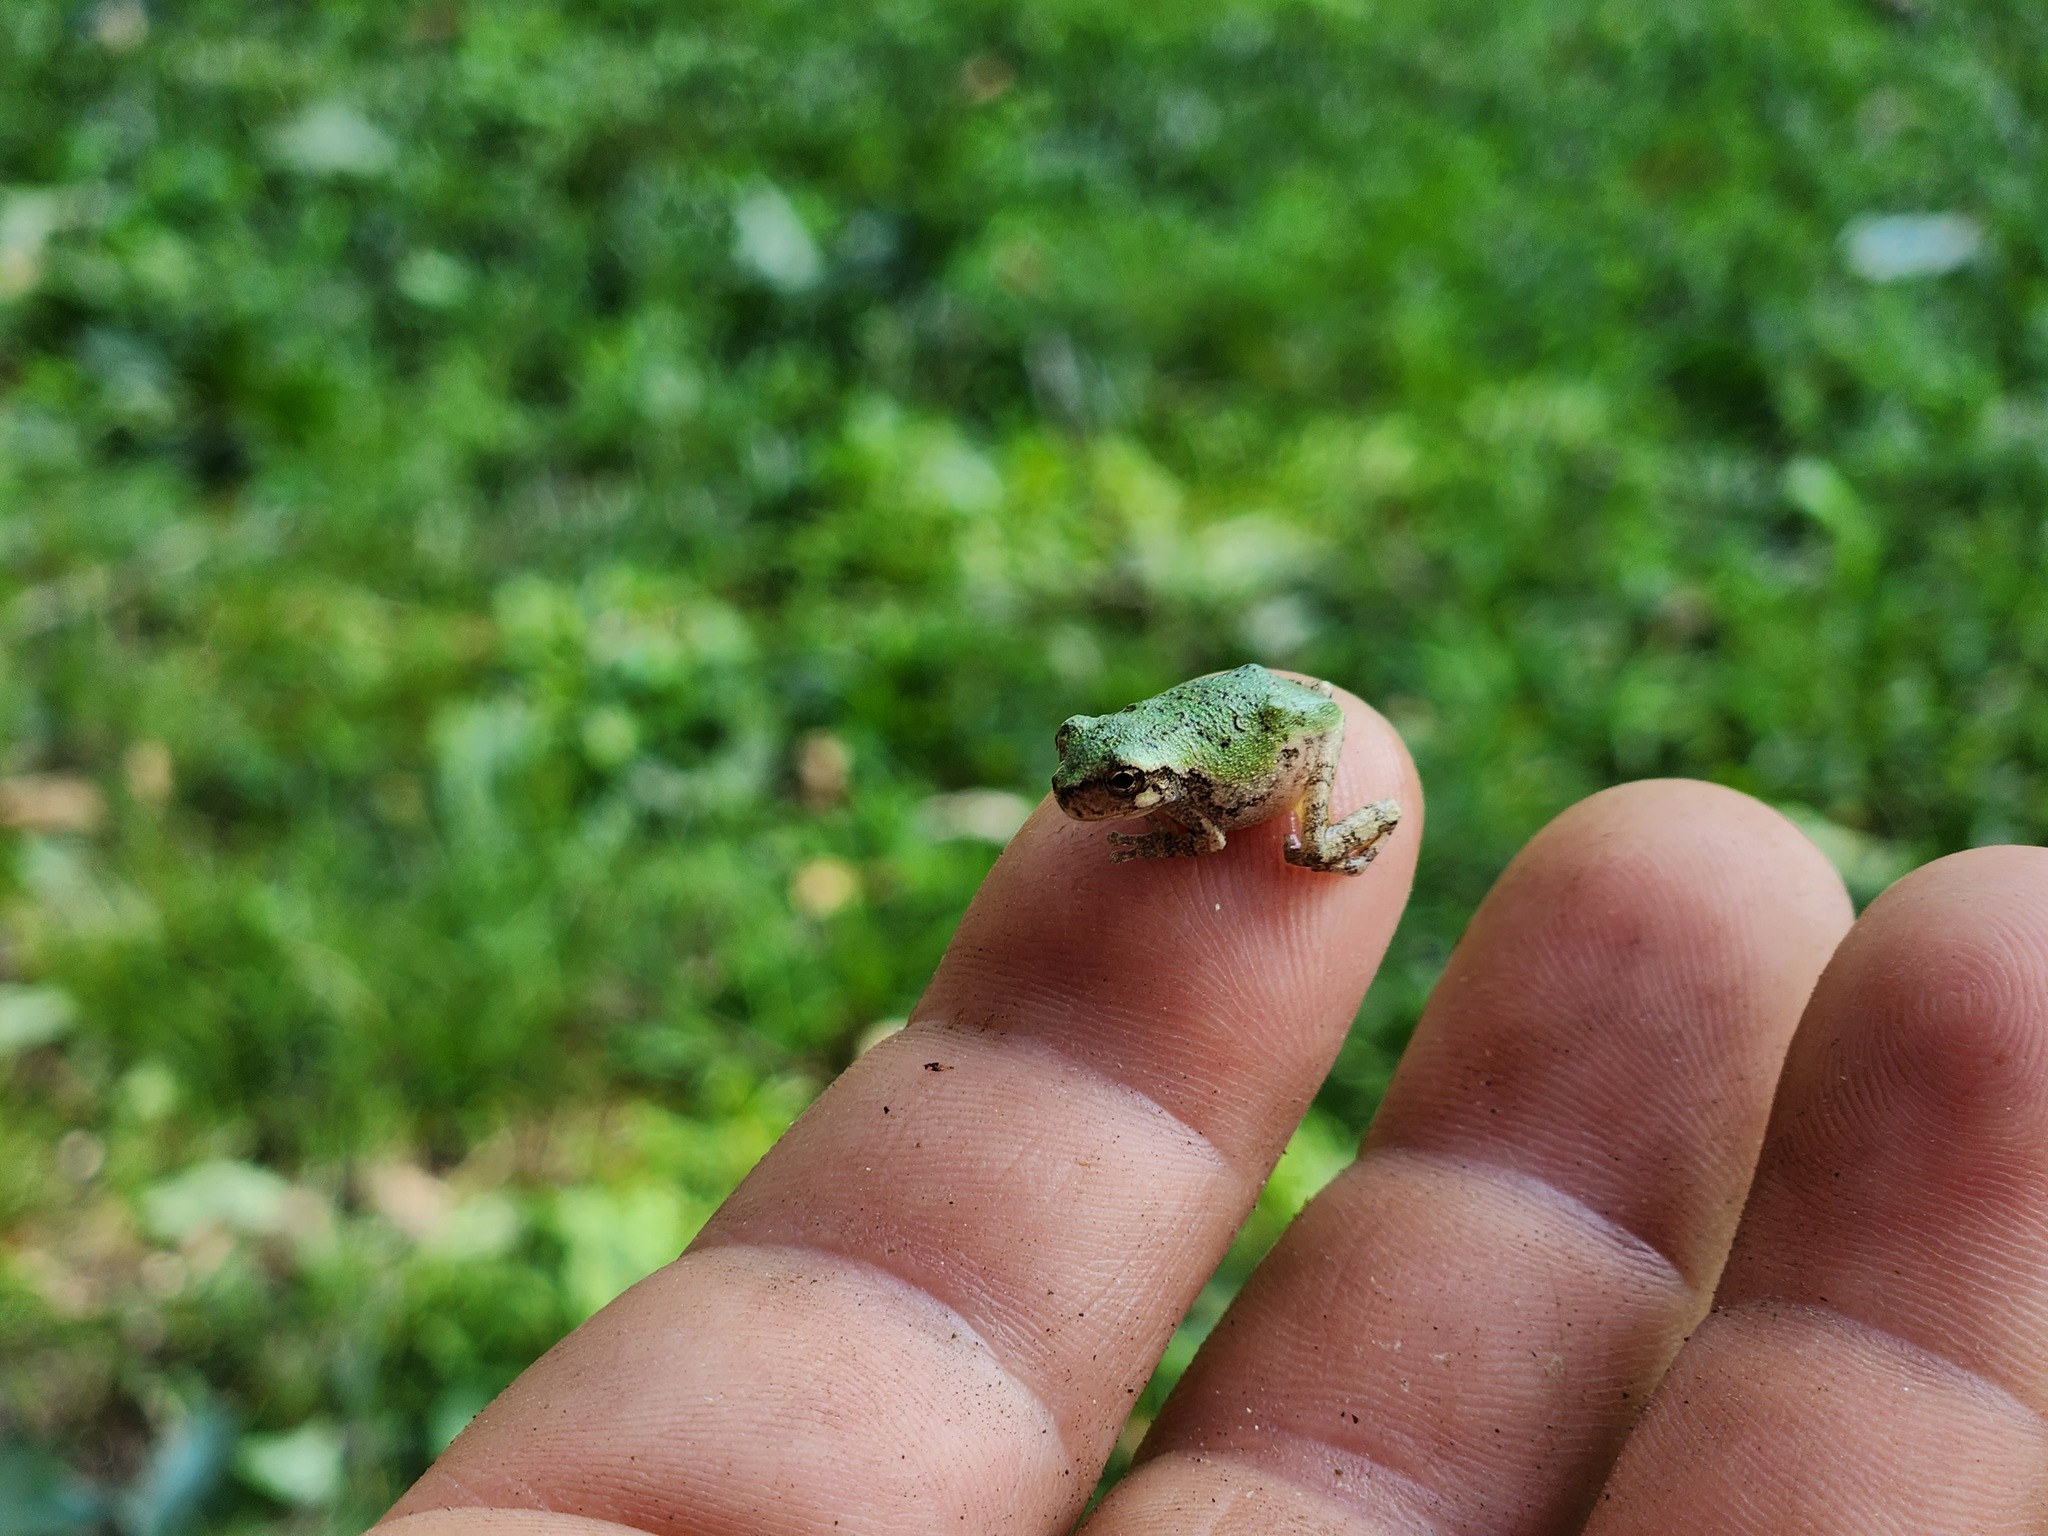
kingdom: Animalia
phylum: Chordata
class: Amphibia
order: Anura
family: Hylidae
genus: Dryophytes
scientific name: Dryophytes chrysoscelis
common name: Cope's gray treefrog
